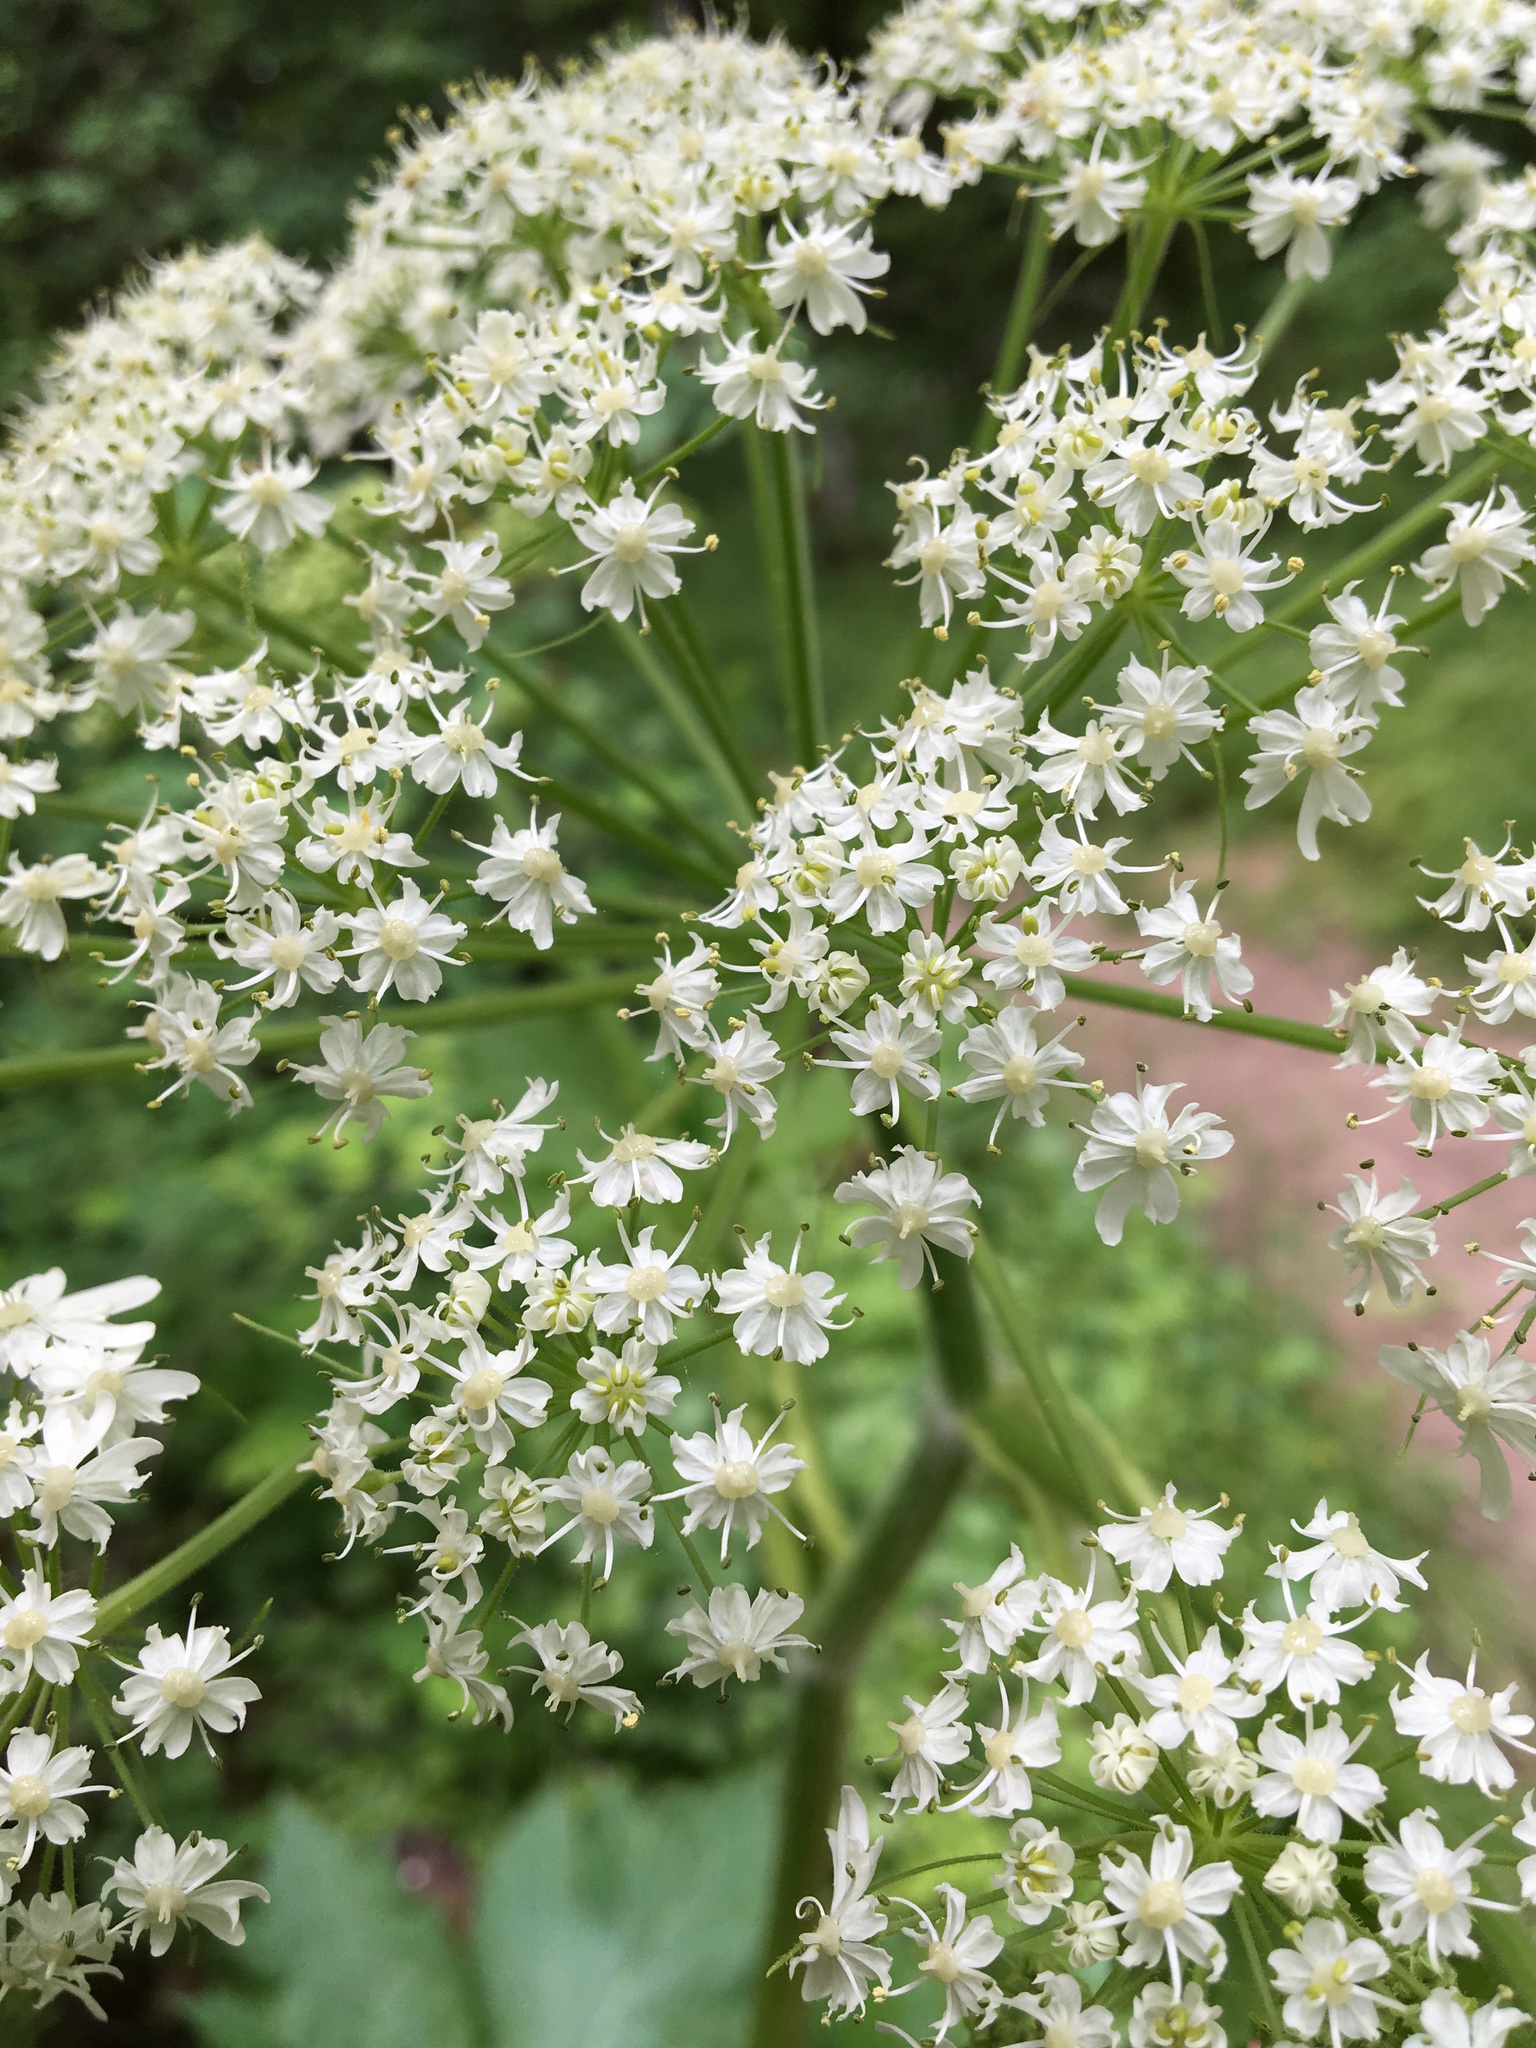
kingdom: Plantae
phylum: Tracheophyta
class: Magnoliopsida
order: Apiales
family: Apiaceae
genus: Heracleum
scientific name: Heracleum maximum
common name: American cow parsnip
